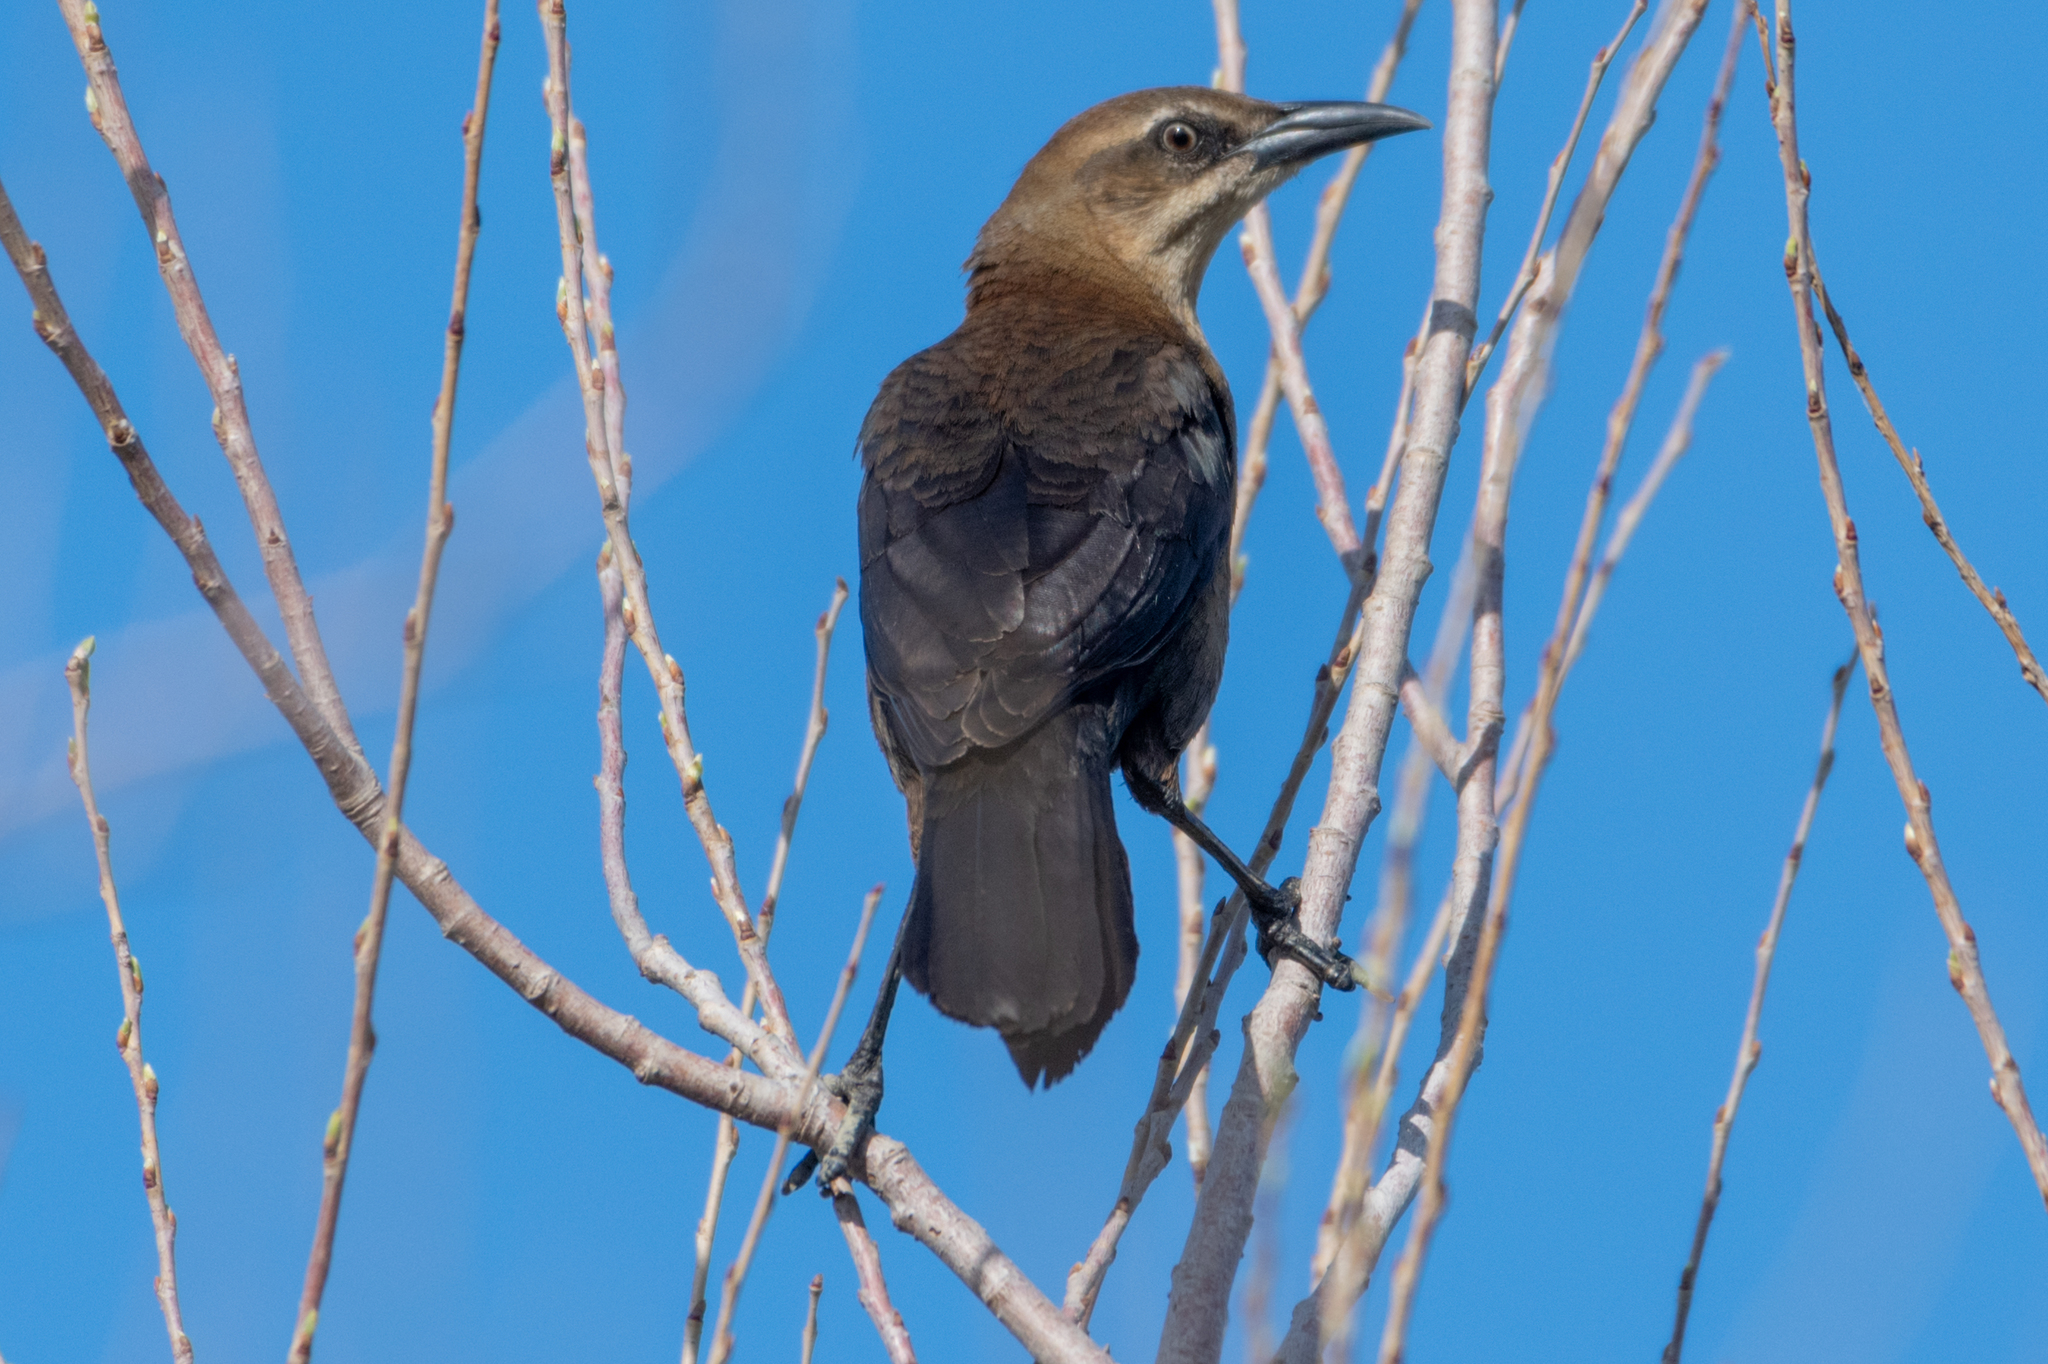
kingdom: Animalia
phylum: Chordata
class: Aves
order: Passeriformes
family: Icteridae
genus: Quiscalus
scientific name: Quiscalus mexicanus
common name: Great-tailed grackle
